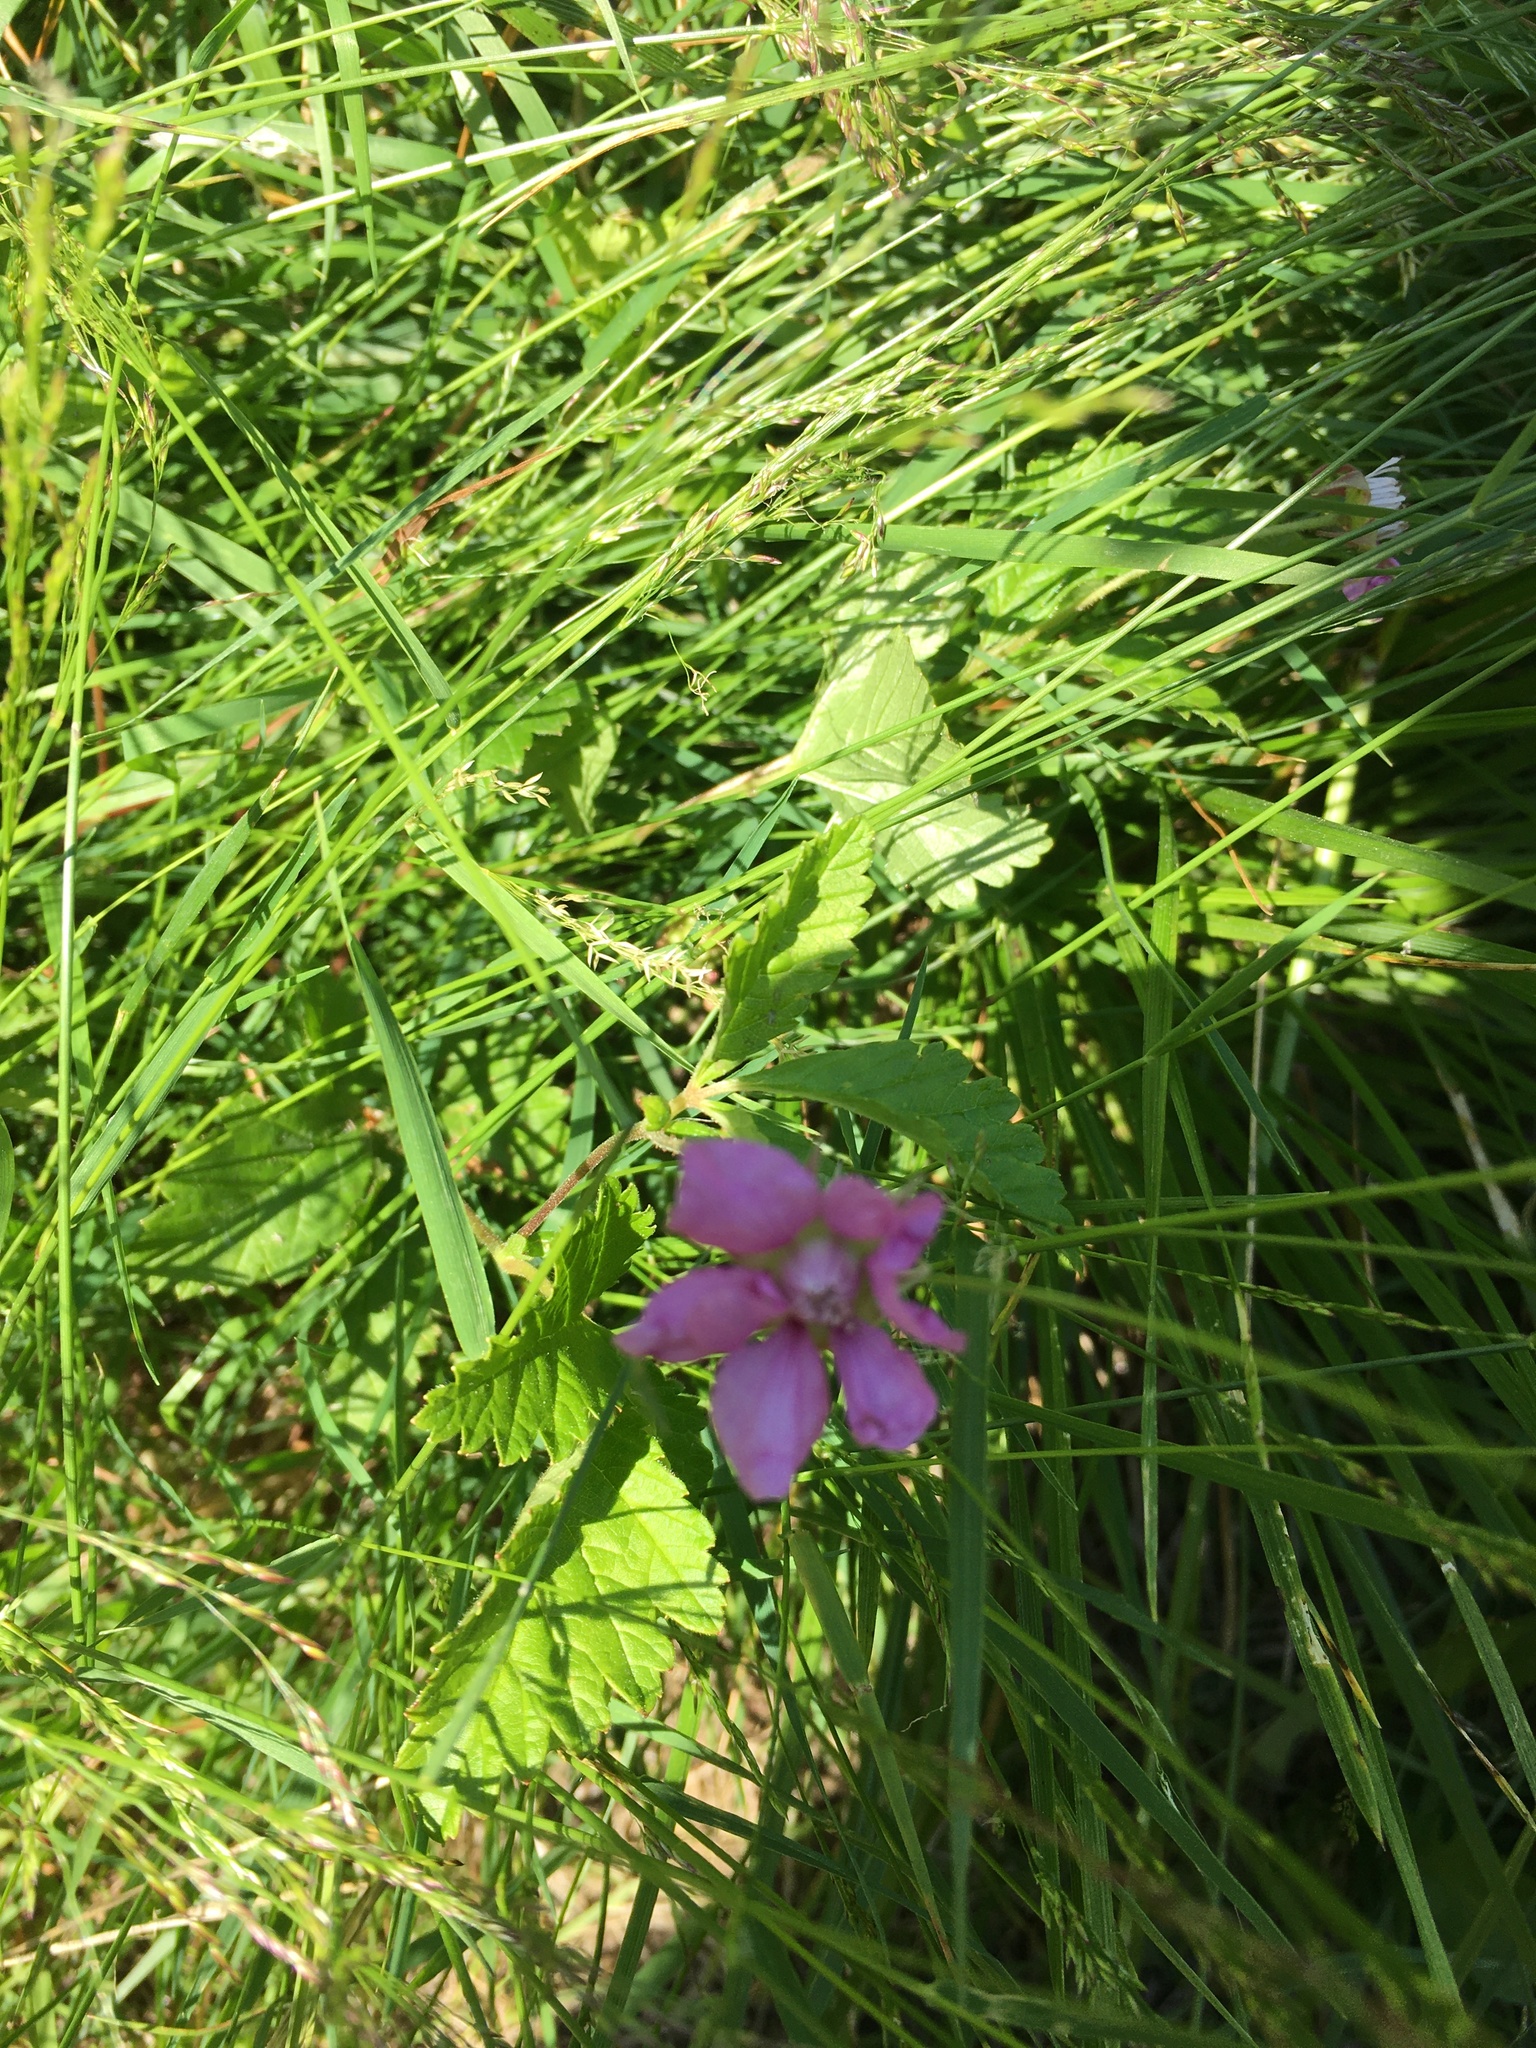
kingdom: Plantae
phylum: Tracheophyta
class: Magnoliopsida
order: Rosales
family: Rosaceae
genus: Rubus
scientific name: Rubus arcticus
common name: Arctic bramble
